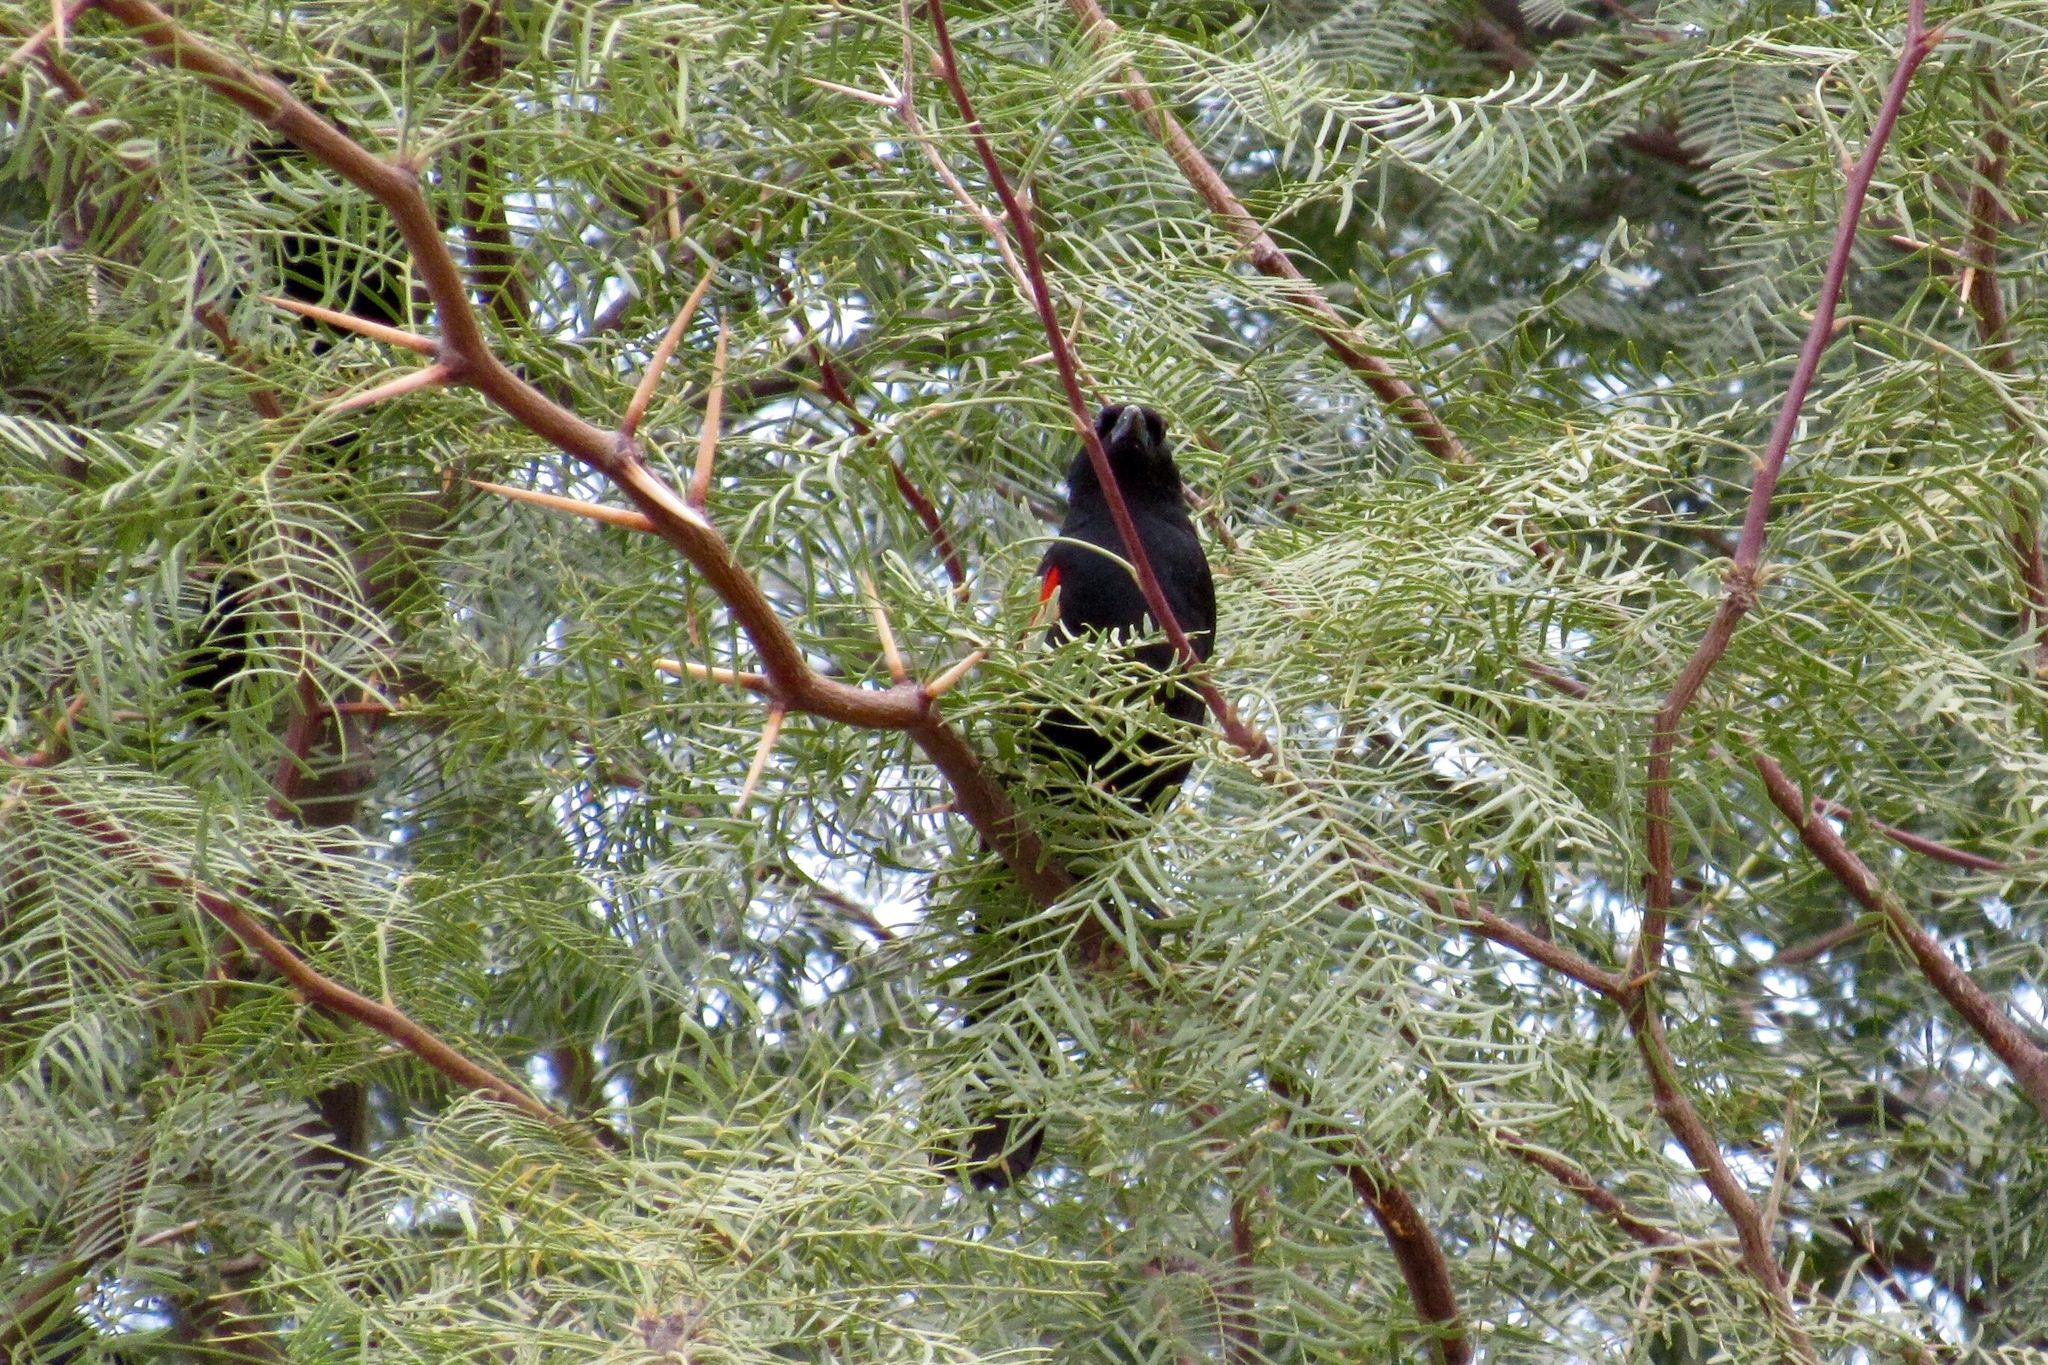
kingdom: Animalia
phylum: Chordata
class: Aves
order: Passeriformes
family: Icteridae
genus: Agelaius
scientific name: Agelaius phoeniceus
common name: Red-winged blackbird
